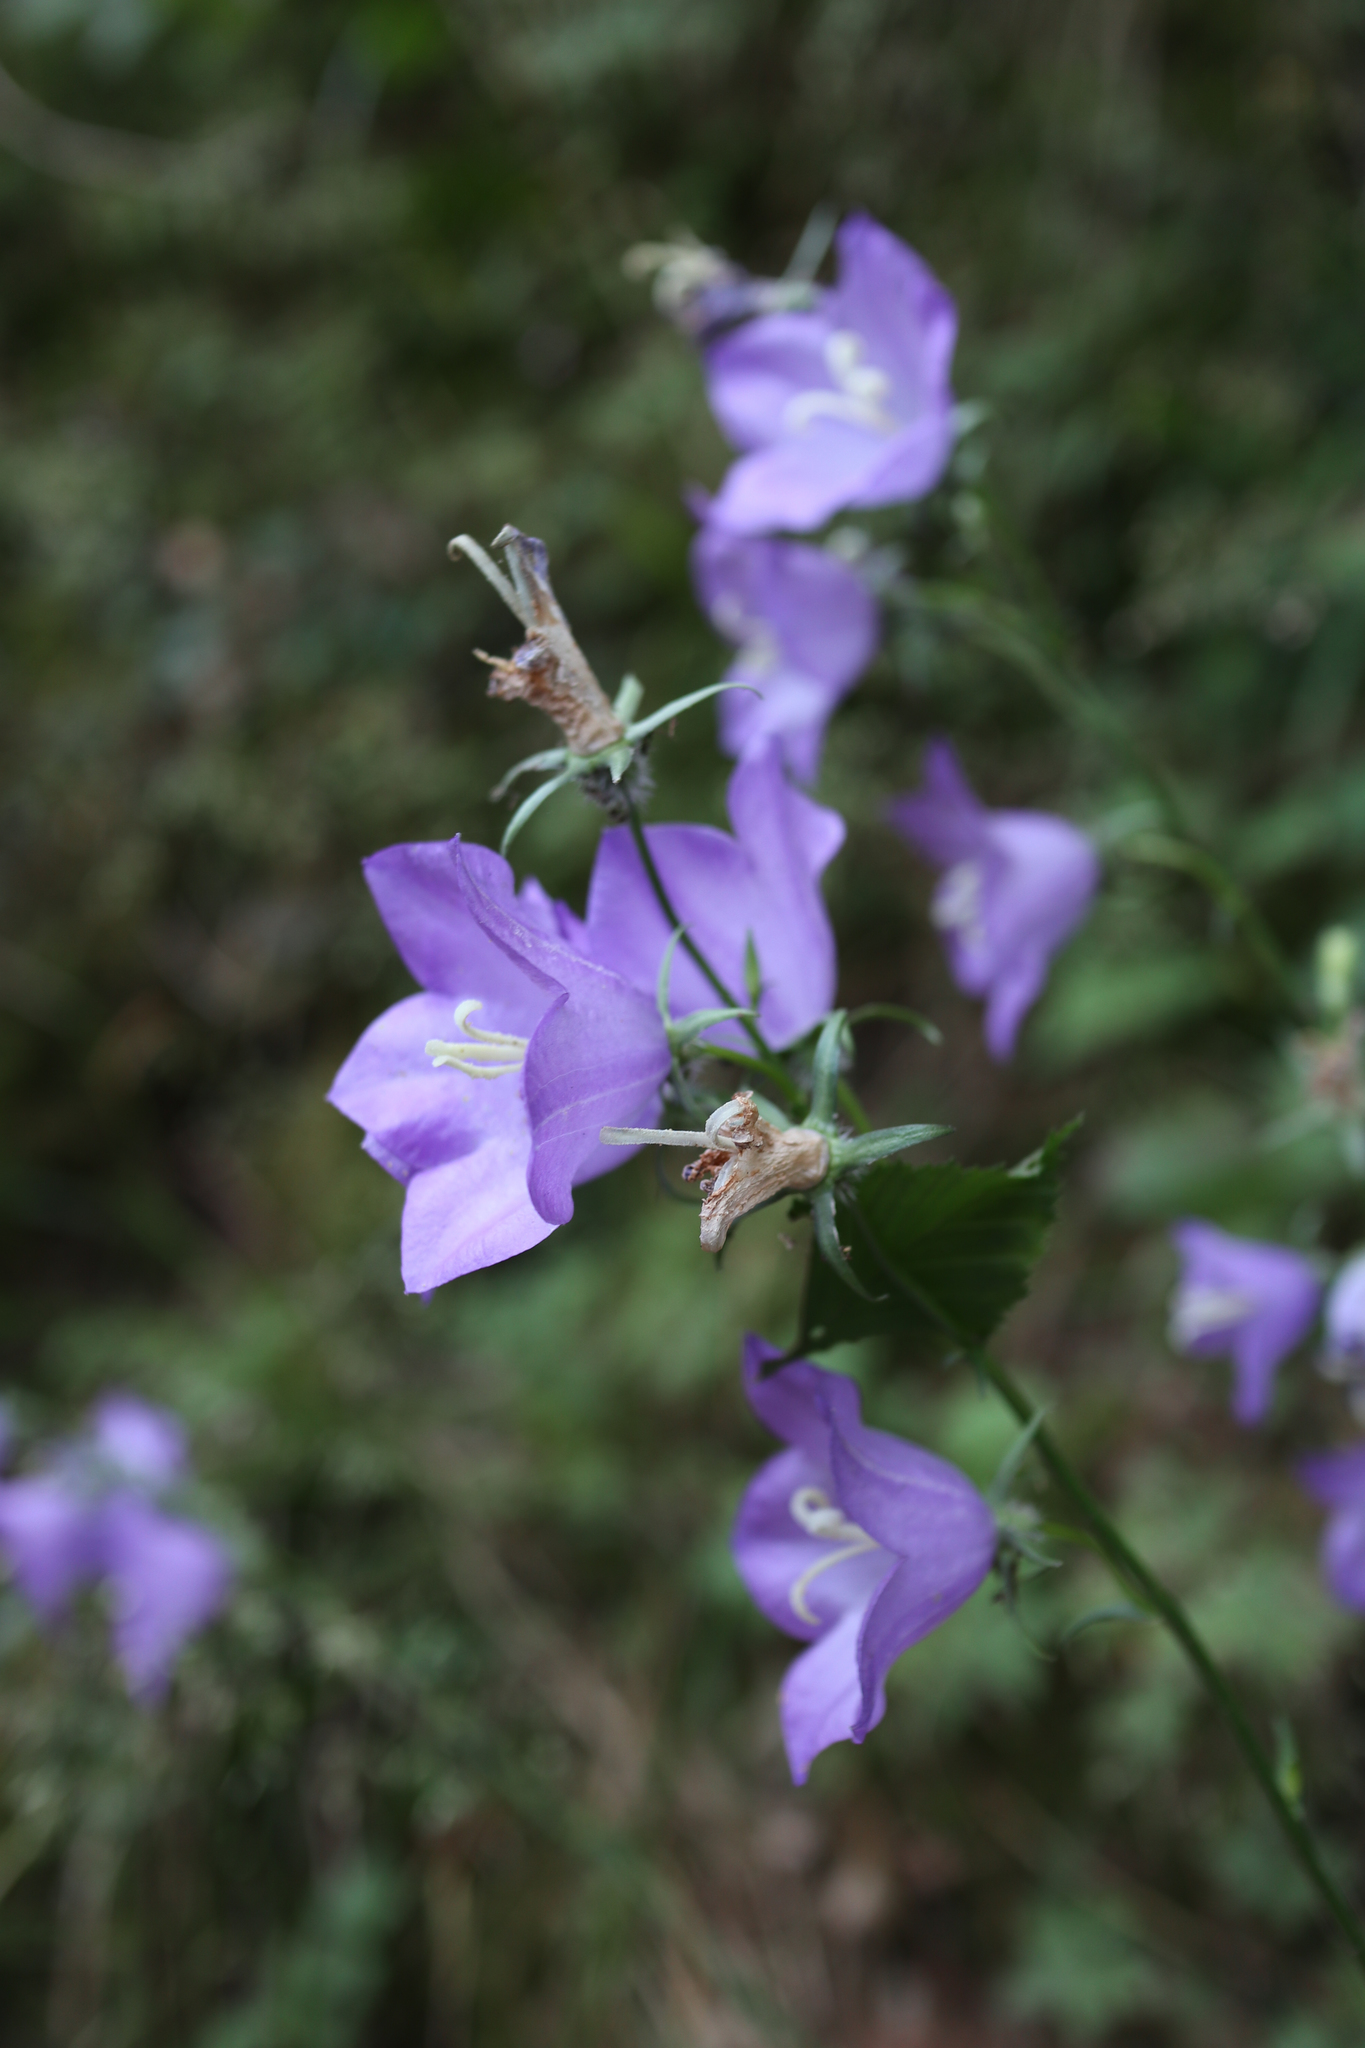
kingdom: Plantae
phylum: Tracheophyta
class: Magnoliopsida
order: Asterales
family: Campanulaceae
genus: Campanula
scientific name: Campanula persicifolia
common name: Peach-leaved bellflower
